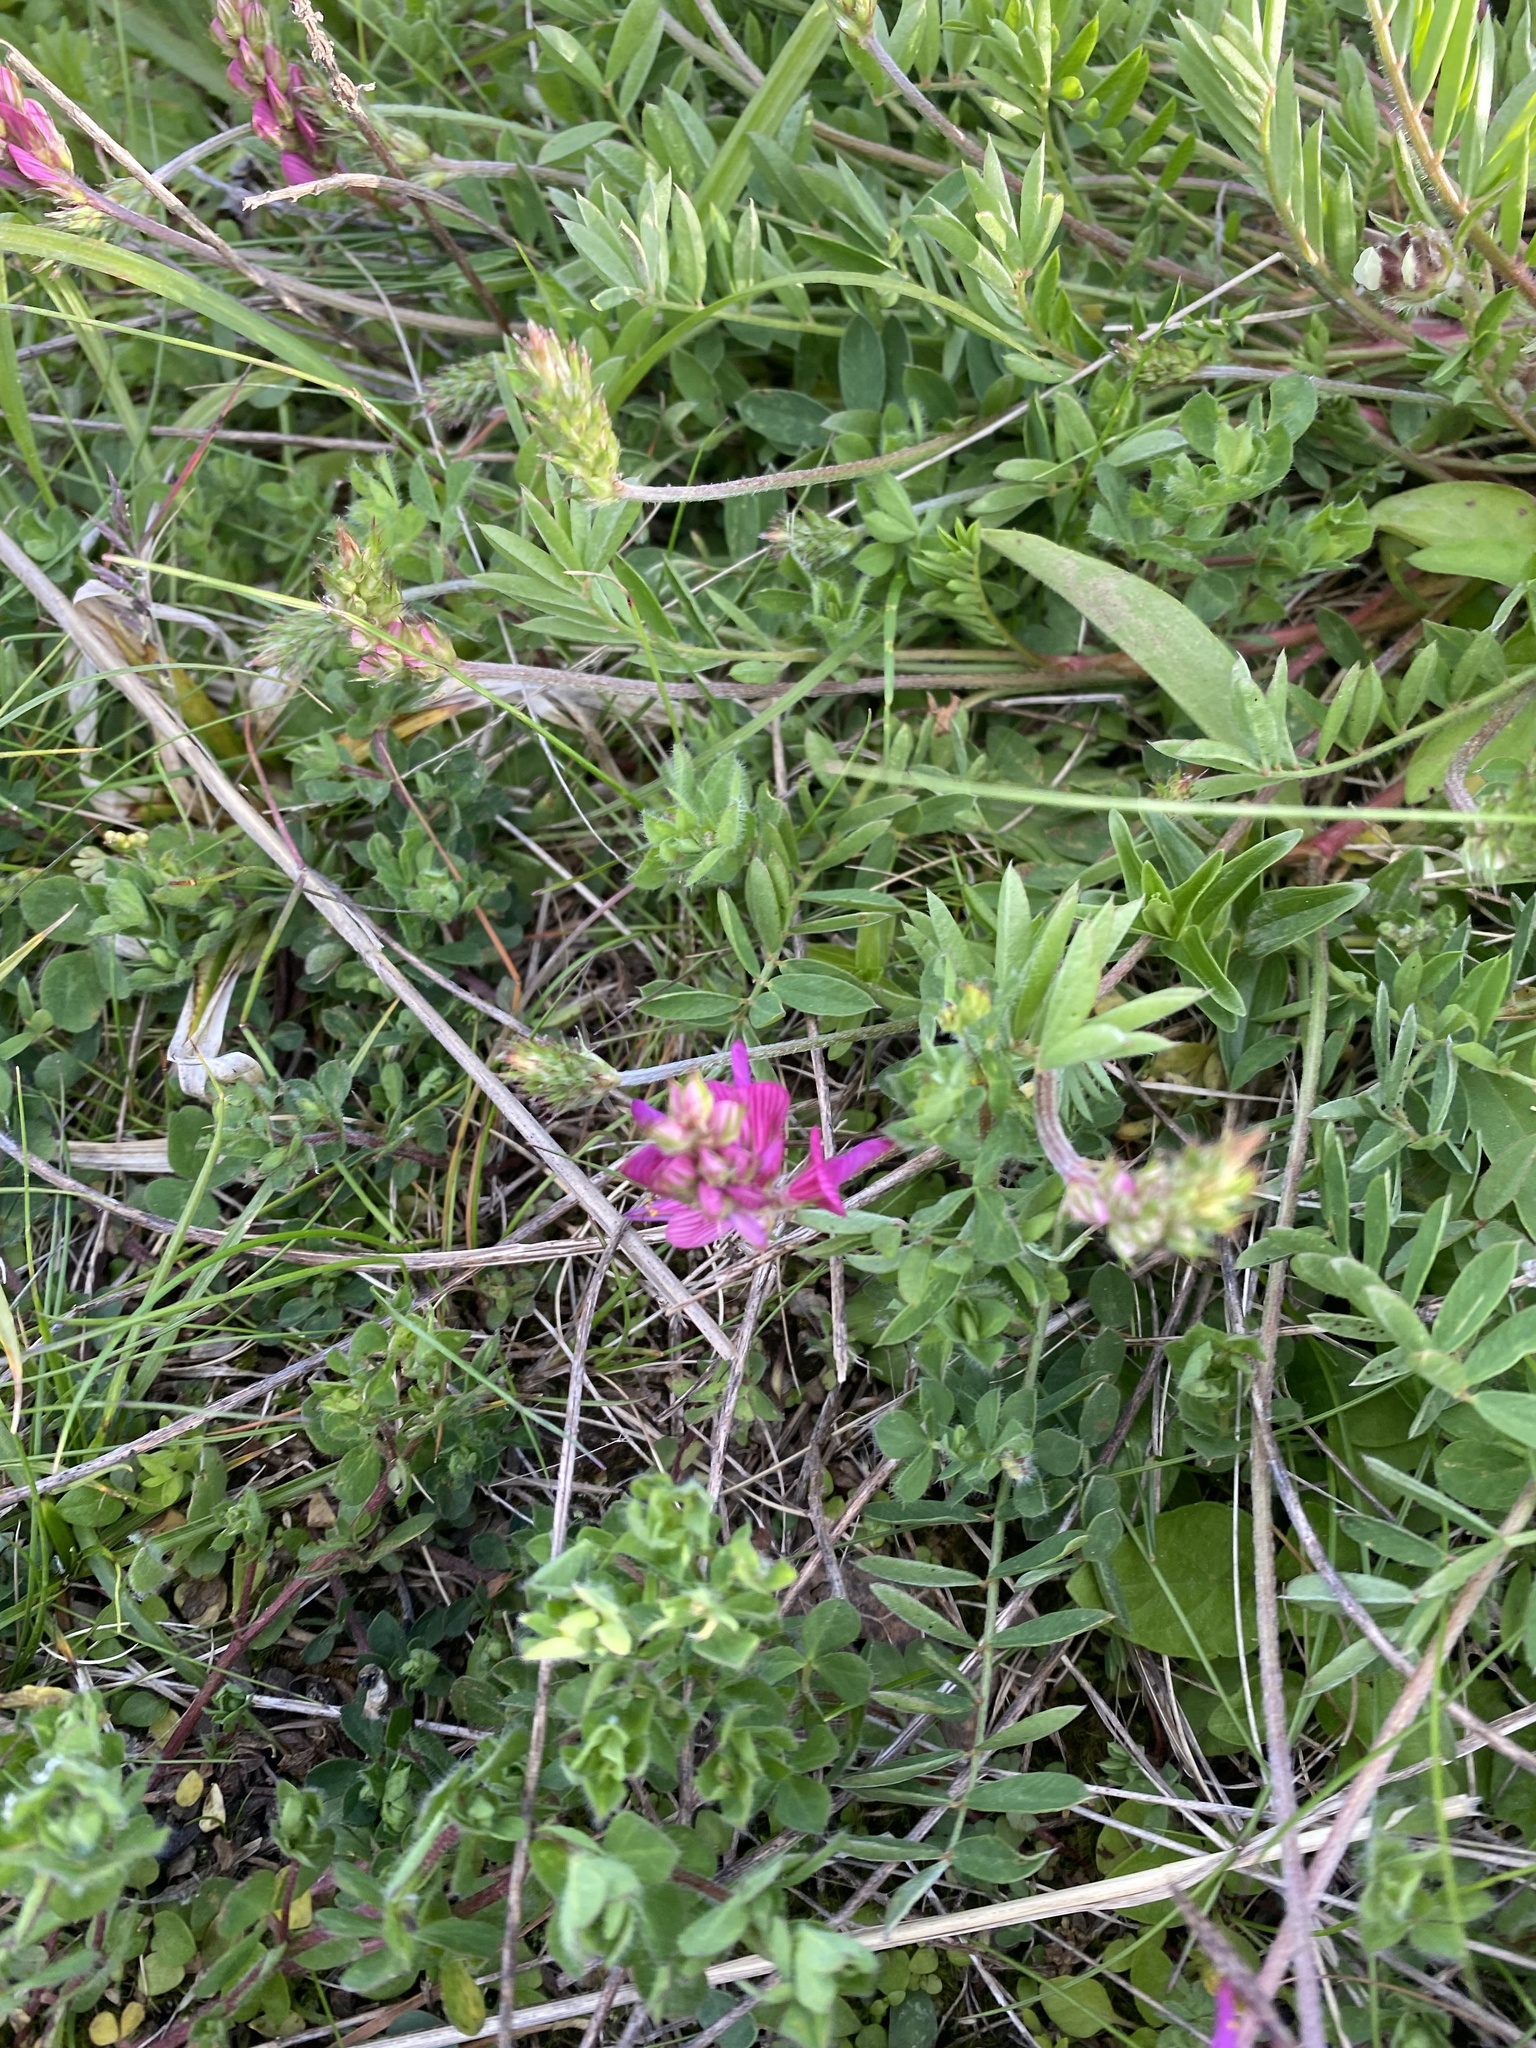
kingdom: Plantae
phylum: Tracheophyta
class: Magnoliopsida
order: Fabales
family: Fabaceae
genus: Onobrychis
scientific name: Onobrychis biebersteinii
